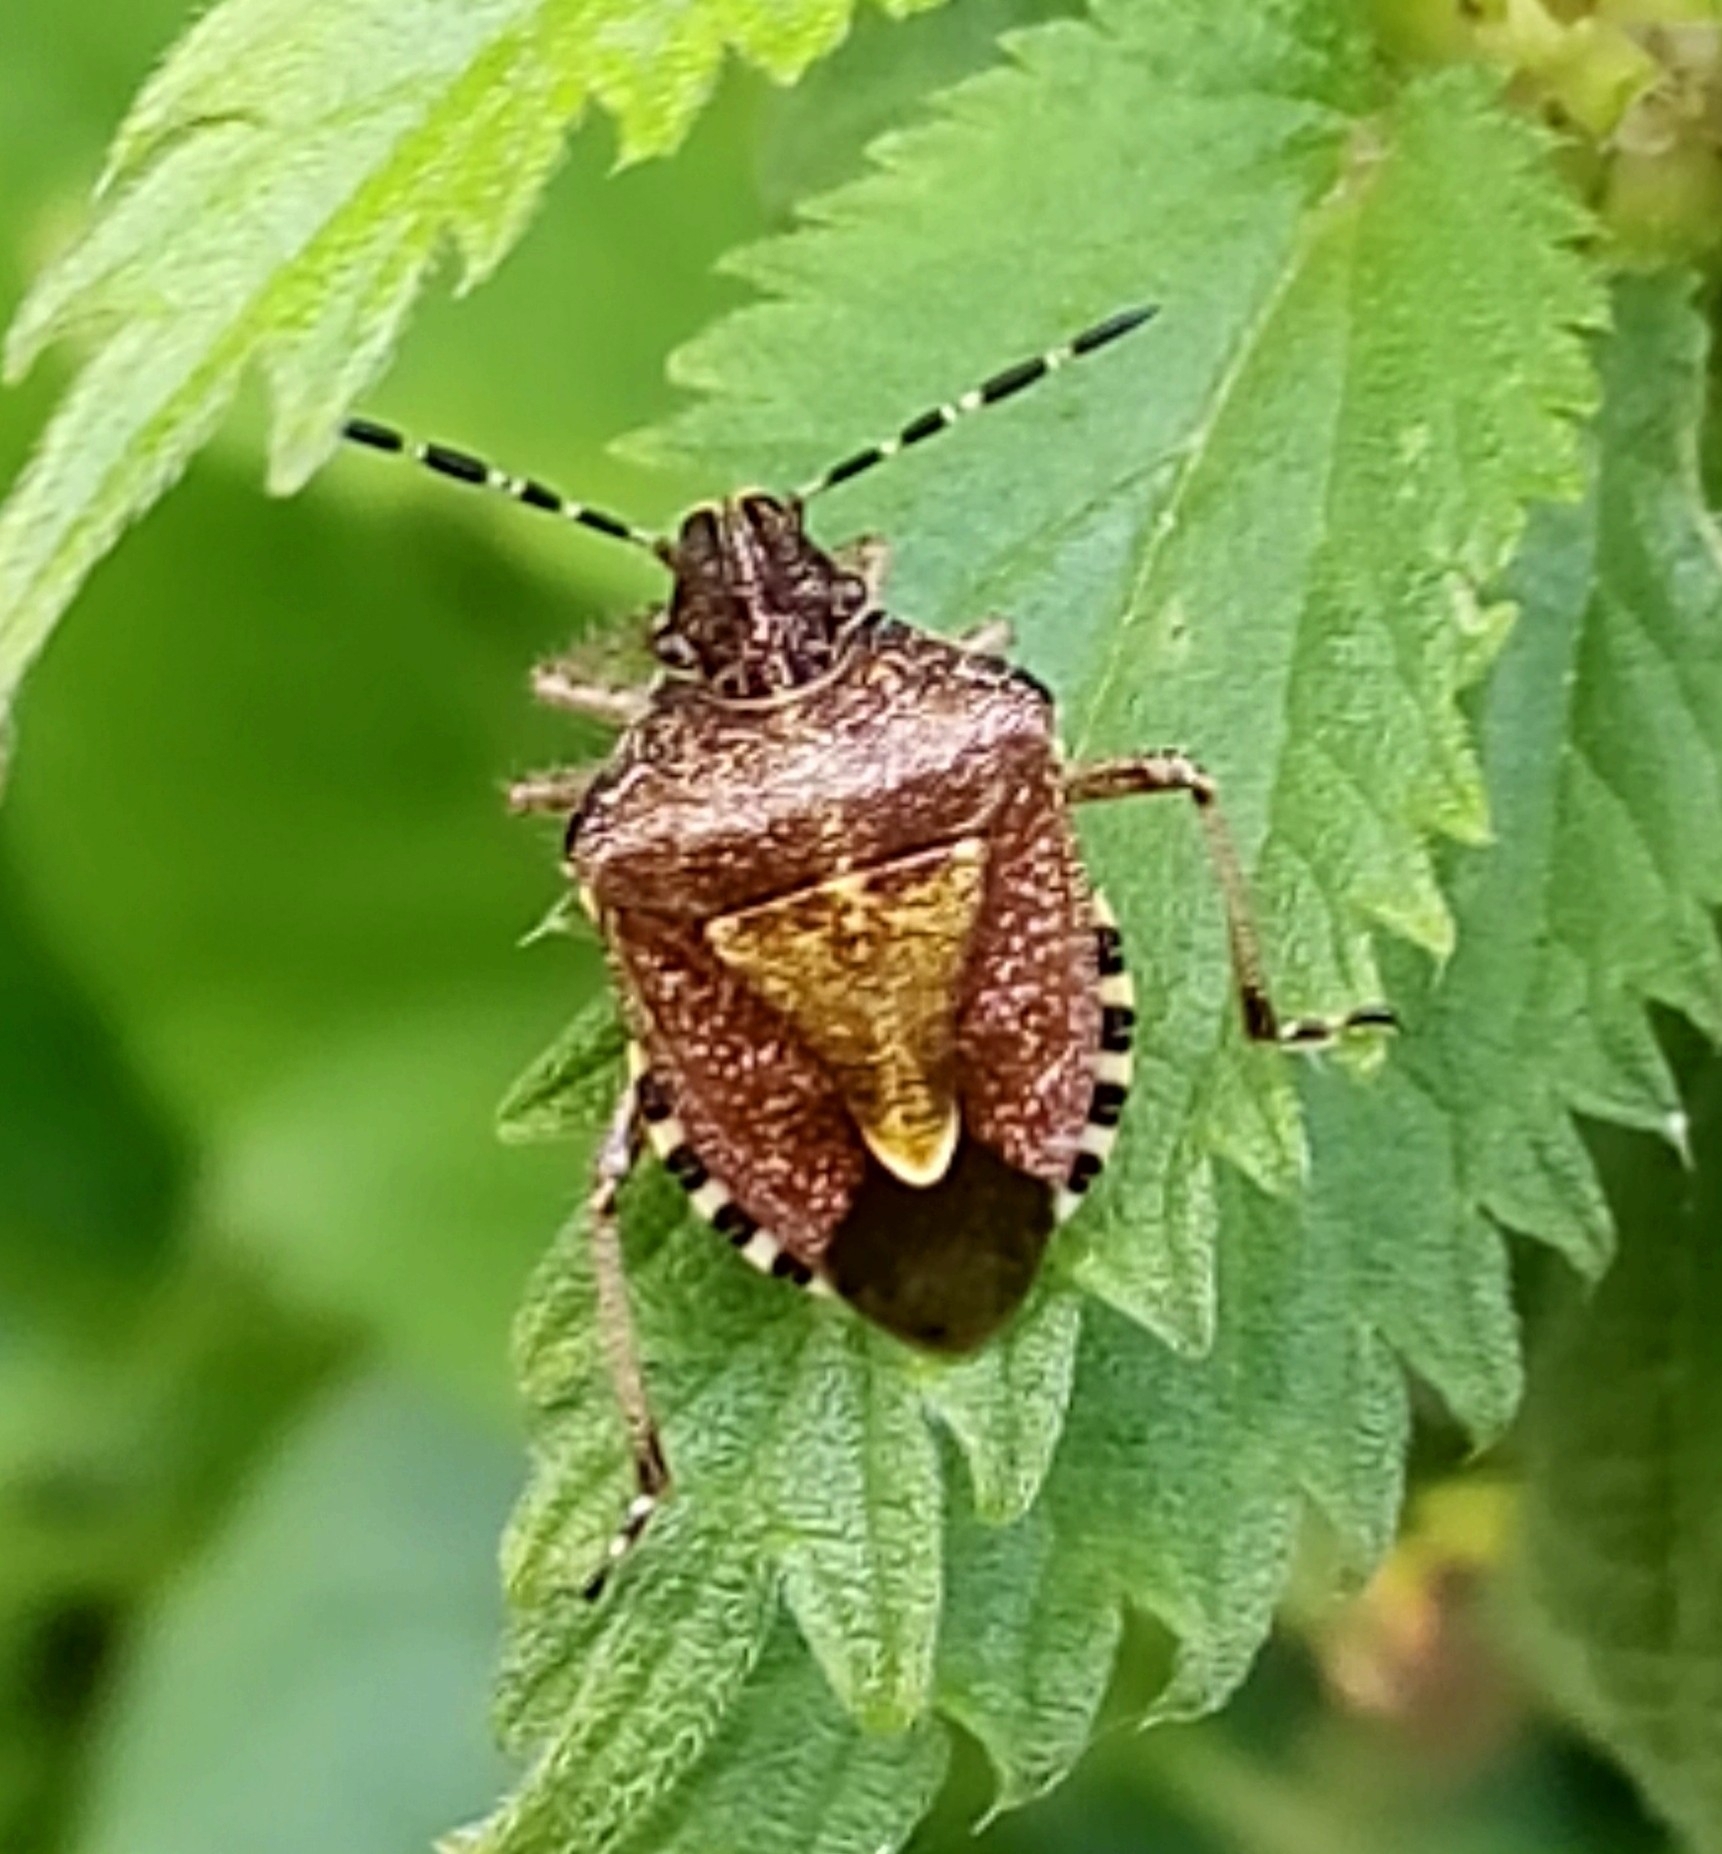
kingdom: Animalia
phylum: Arthropoda
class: Insecta
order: Hemiptera
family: Pentatomidae
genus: Dolycoris
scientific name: Dolycoris baccarum
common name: Sloe bug
